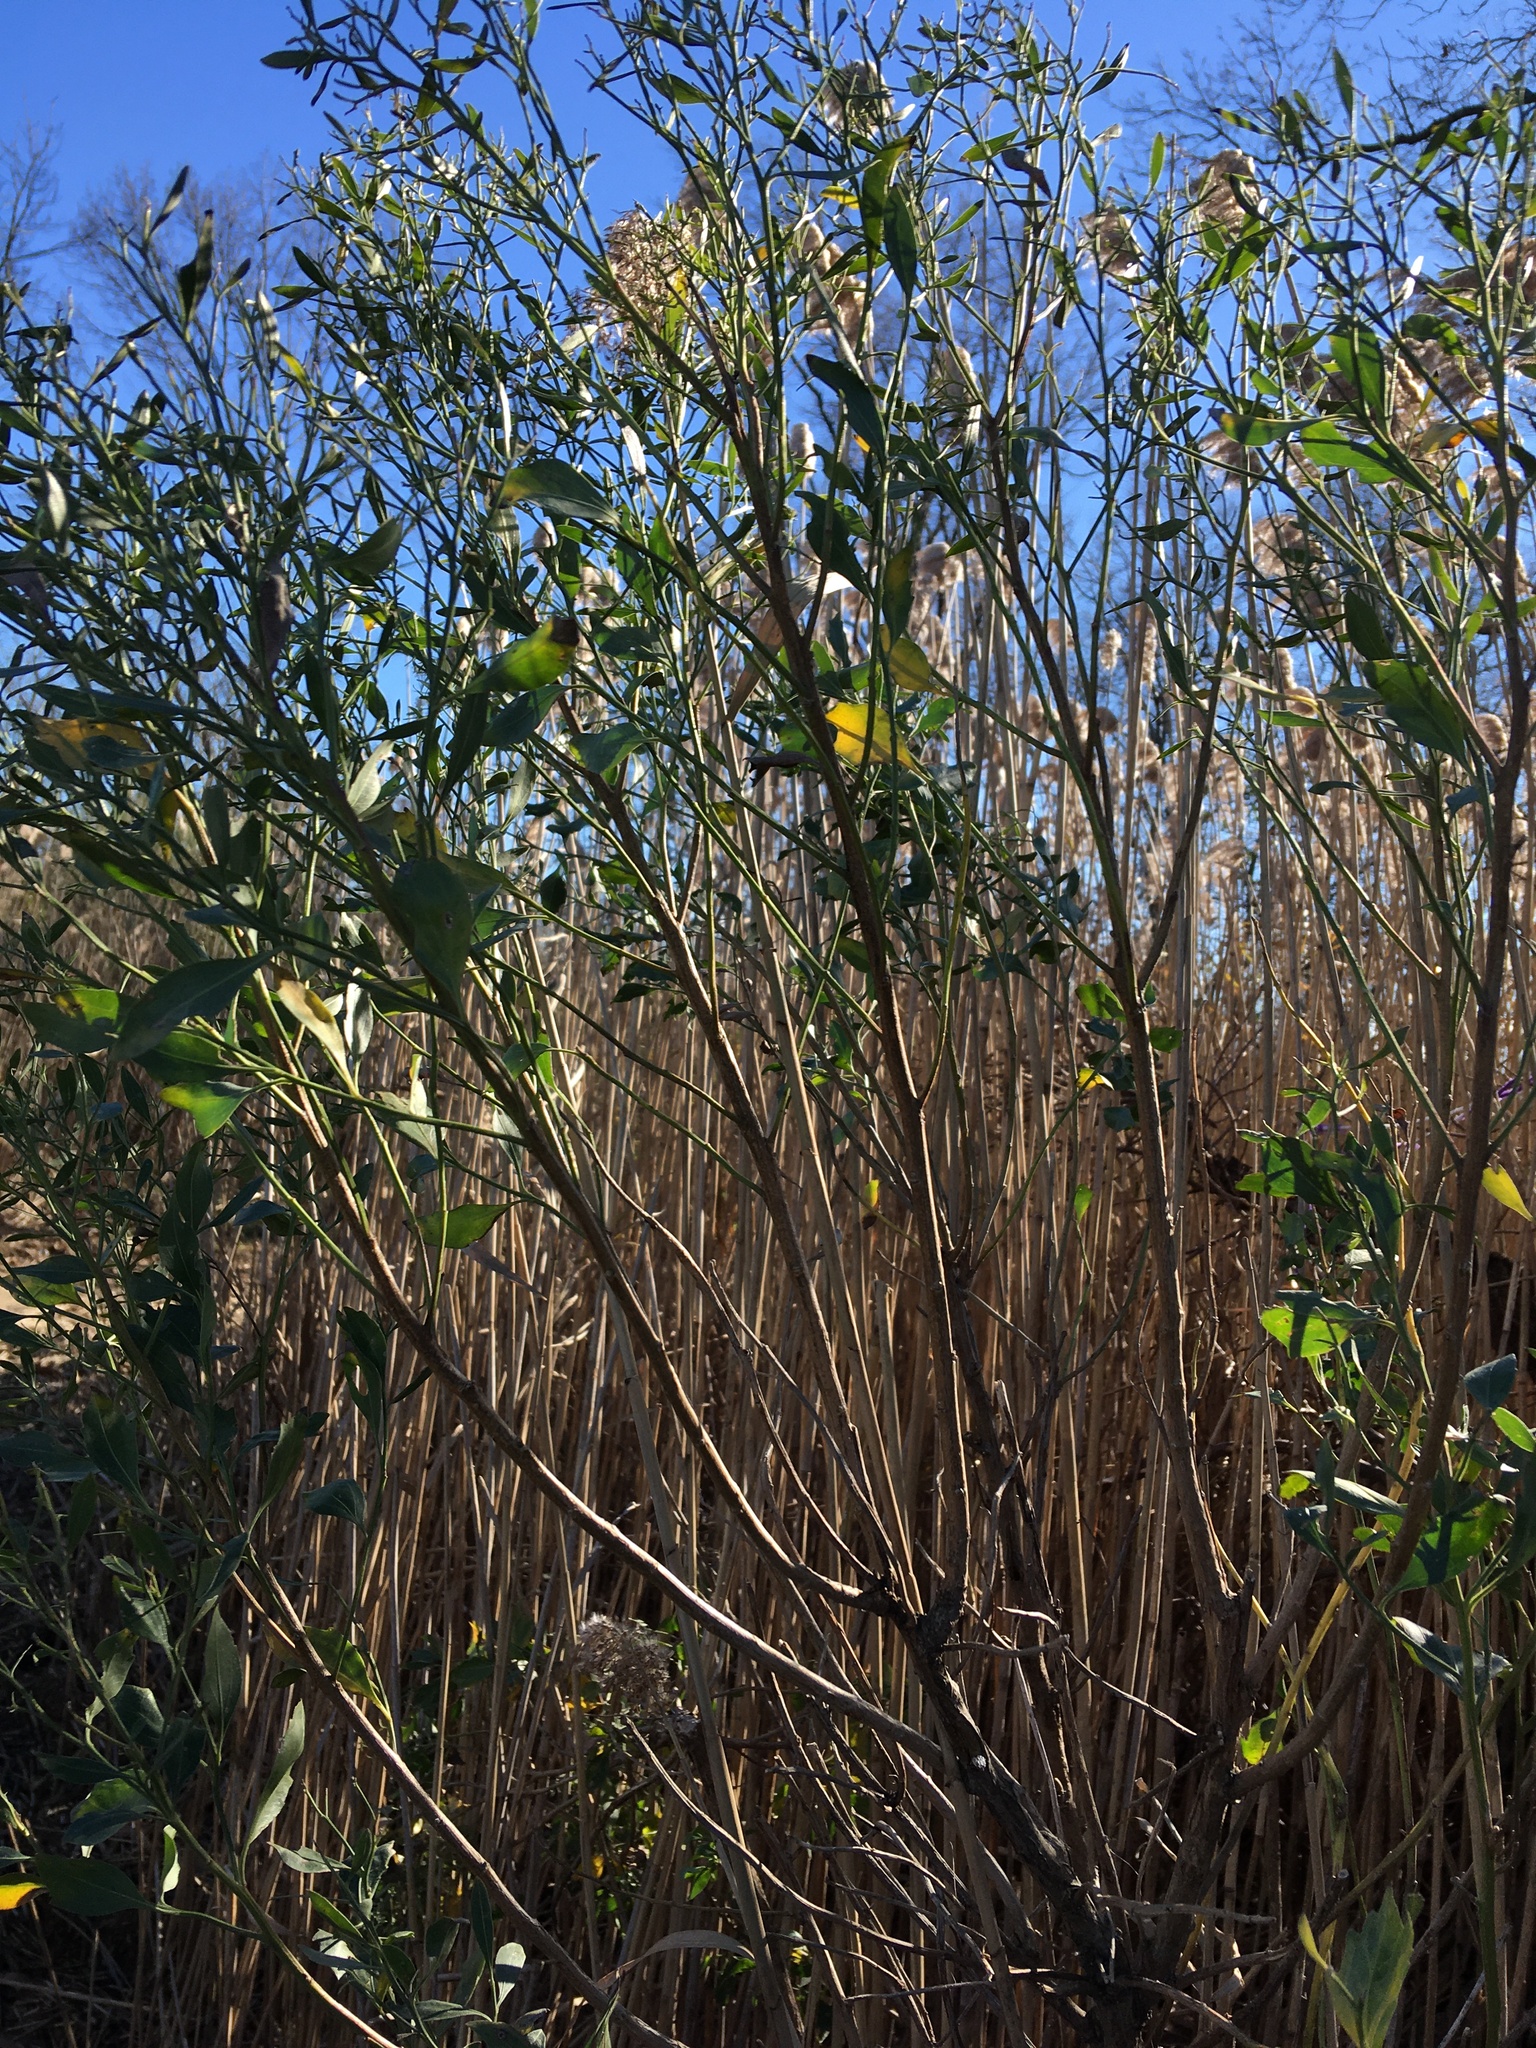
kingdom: Plantae
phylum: Tracheophyta
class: Magnoliopsida
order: Asterales
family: Asteraceae
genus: Baccharis
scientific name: Baccharis halimifolia
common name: Eastern baccharis
